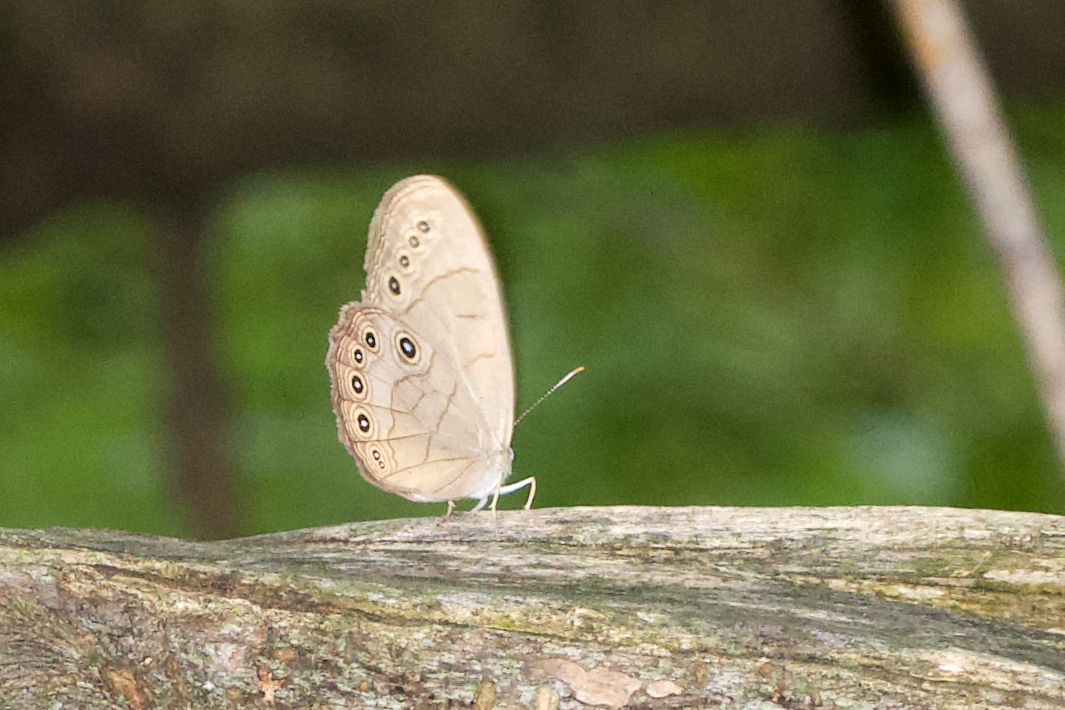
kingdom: Animalia
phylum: Arthropoda
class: Insecta
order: Lepidoptera
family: Nymphalidae
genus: Lethe
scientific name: Lethe eurydice
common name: Eyed brown
